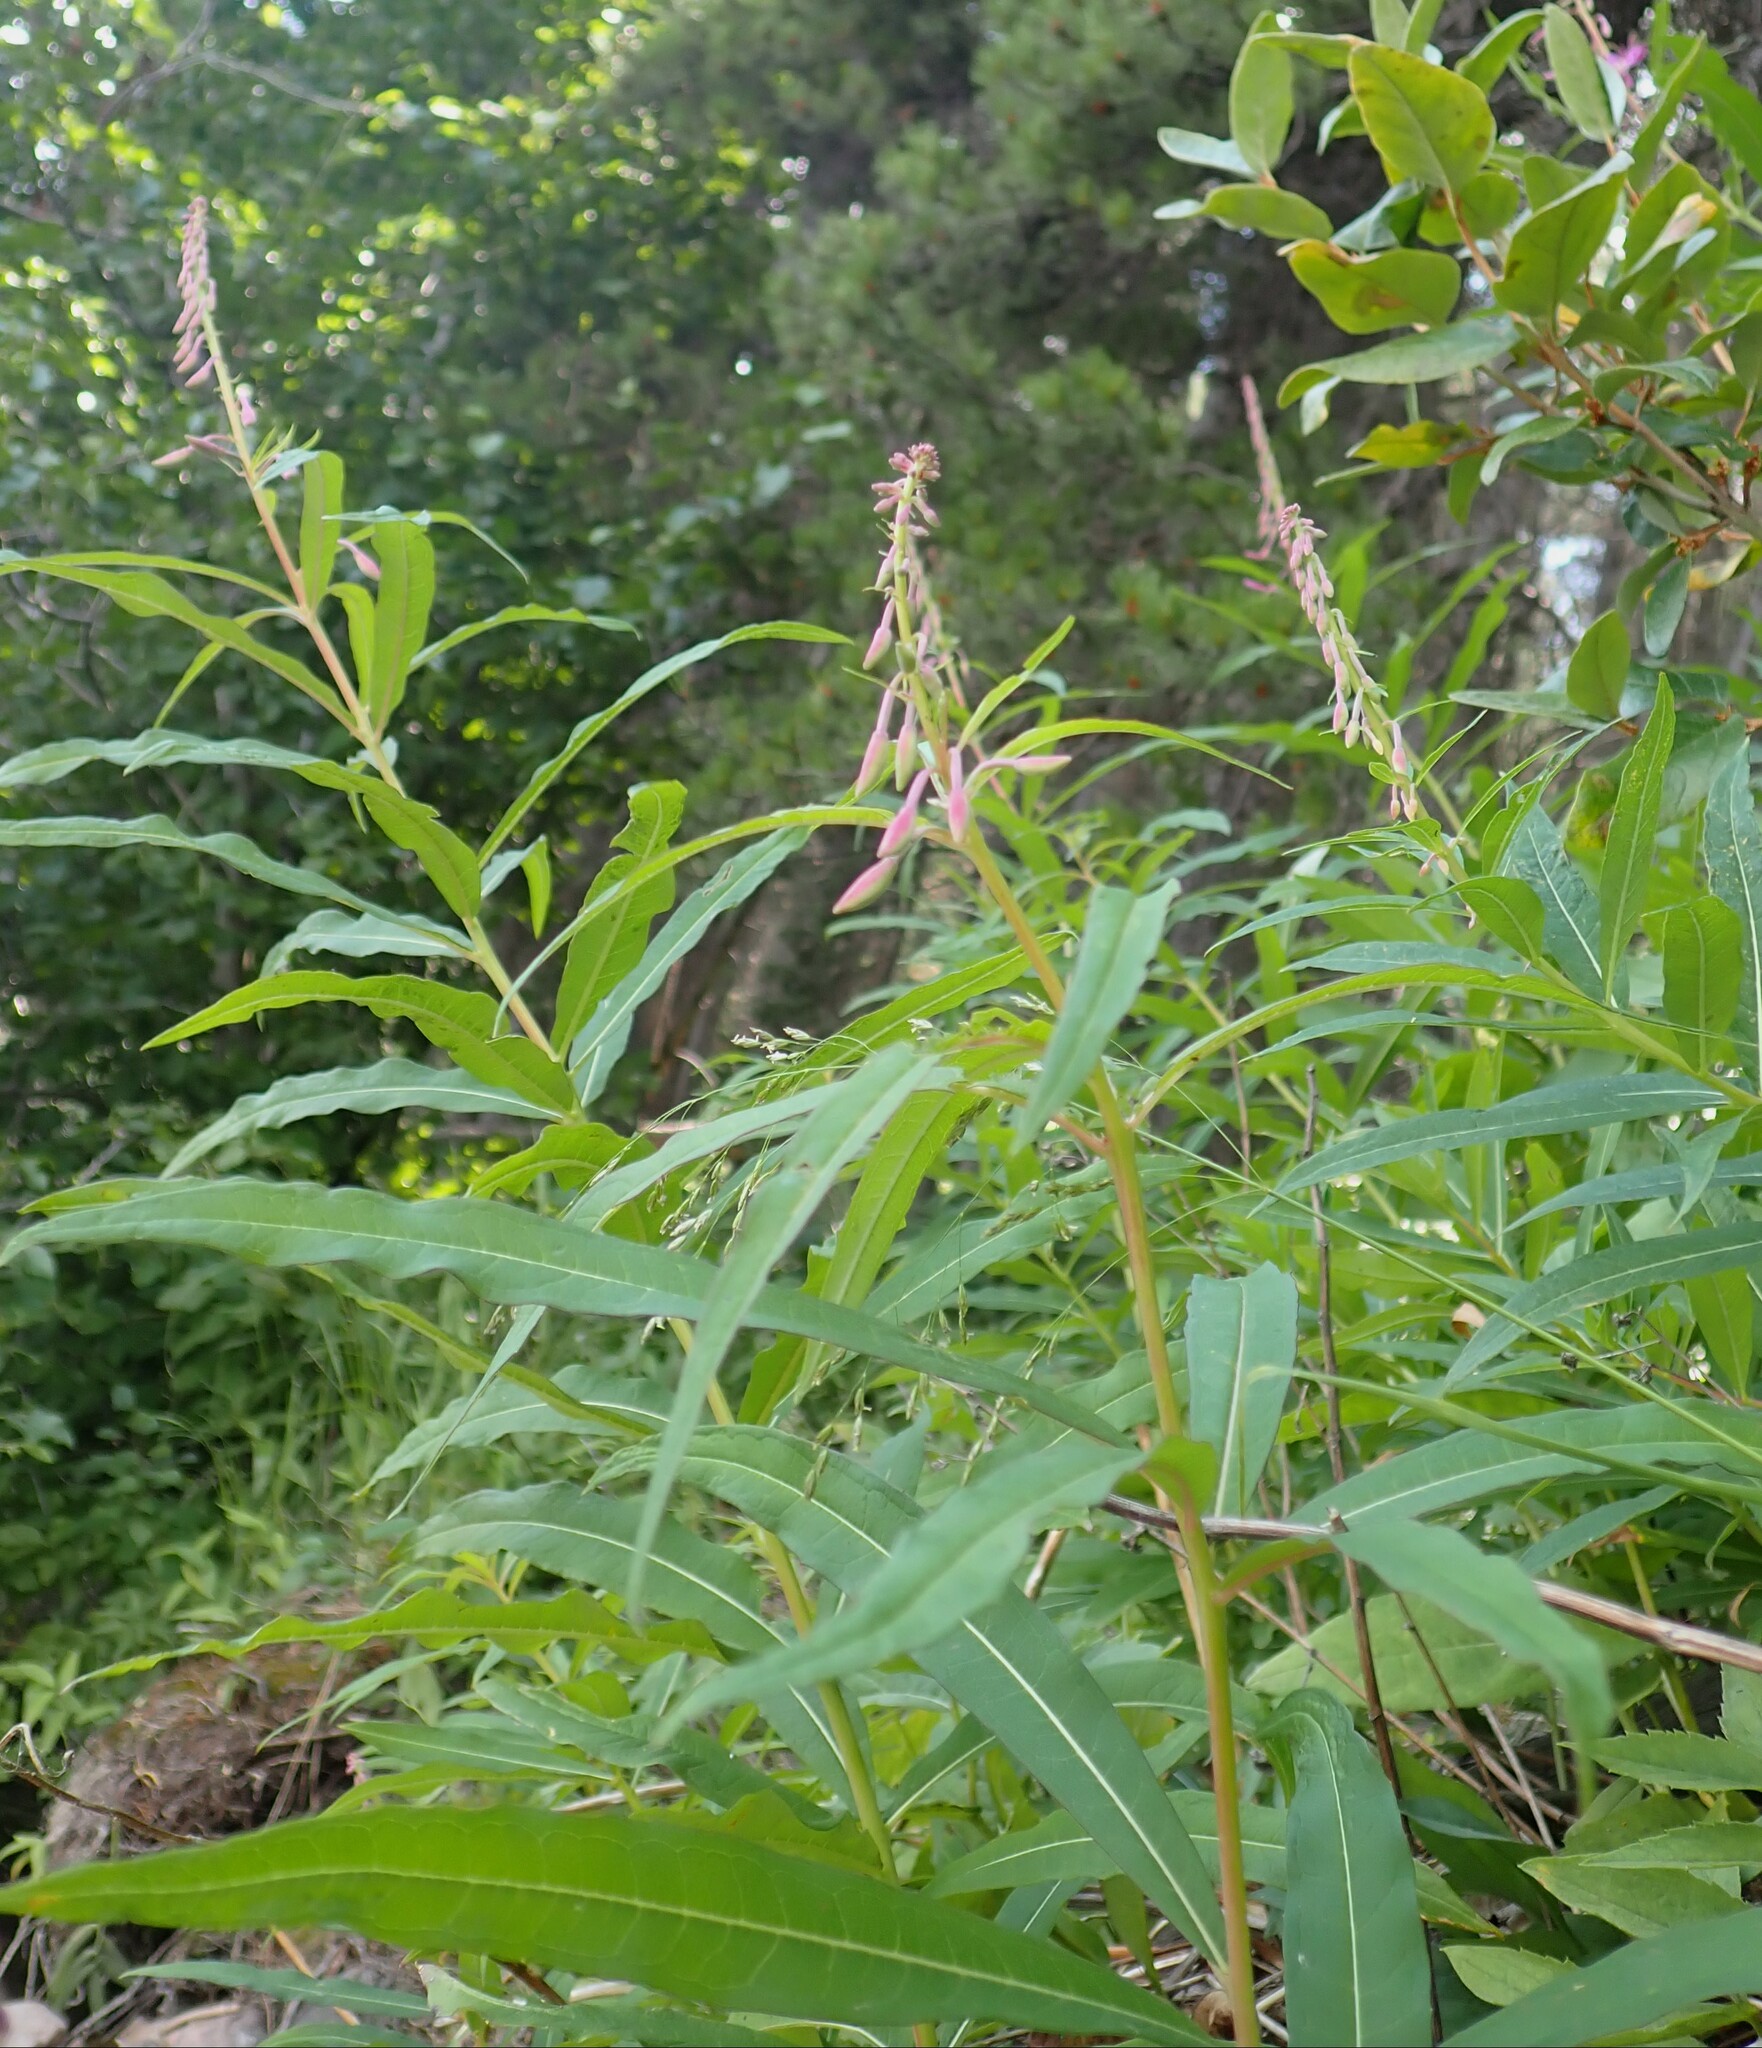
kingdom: Plantae
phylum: Tracheophyta
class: Magnoliopsida
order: Myrtales
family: Onagraceae
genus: Chamaenerion
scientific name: Chamaenerion angustifolium
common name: Fireweed
